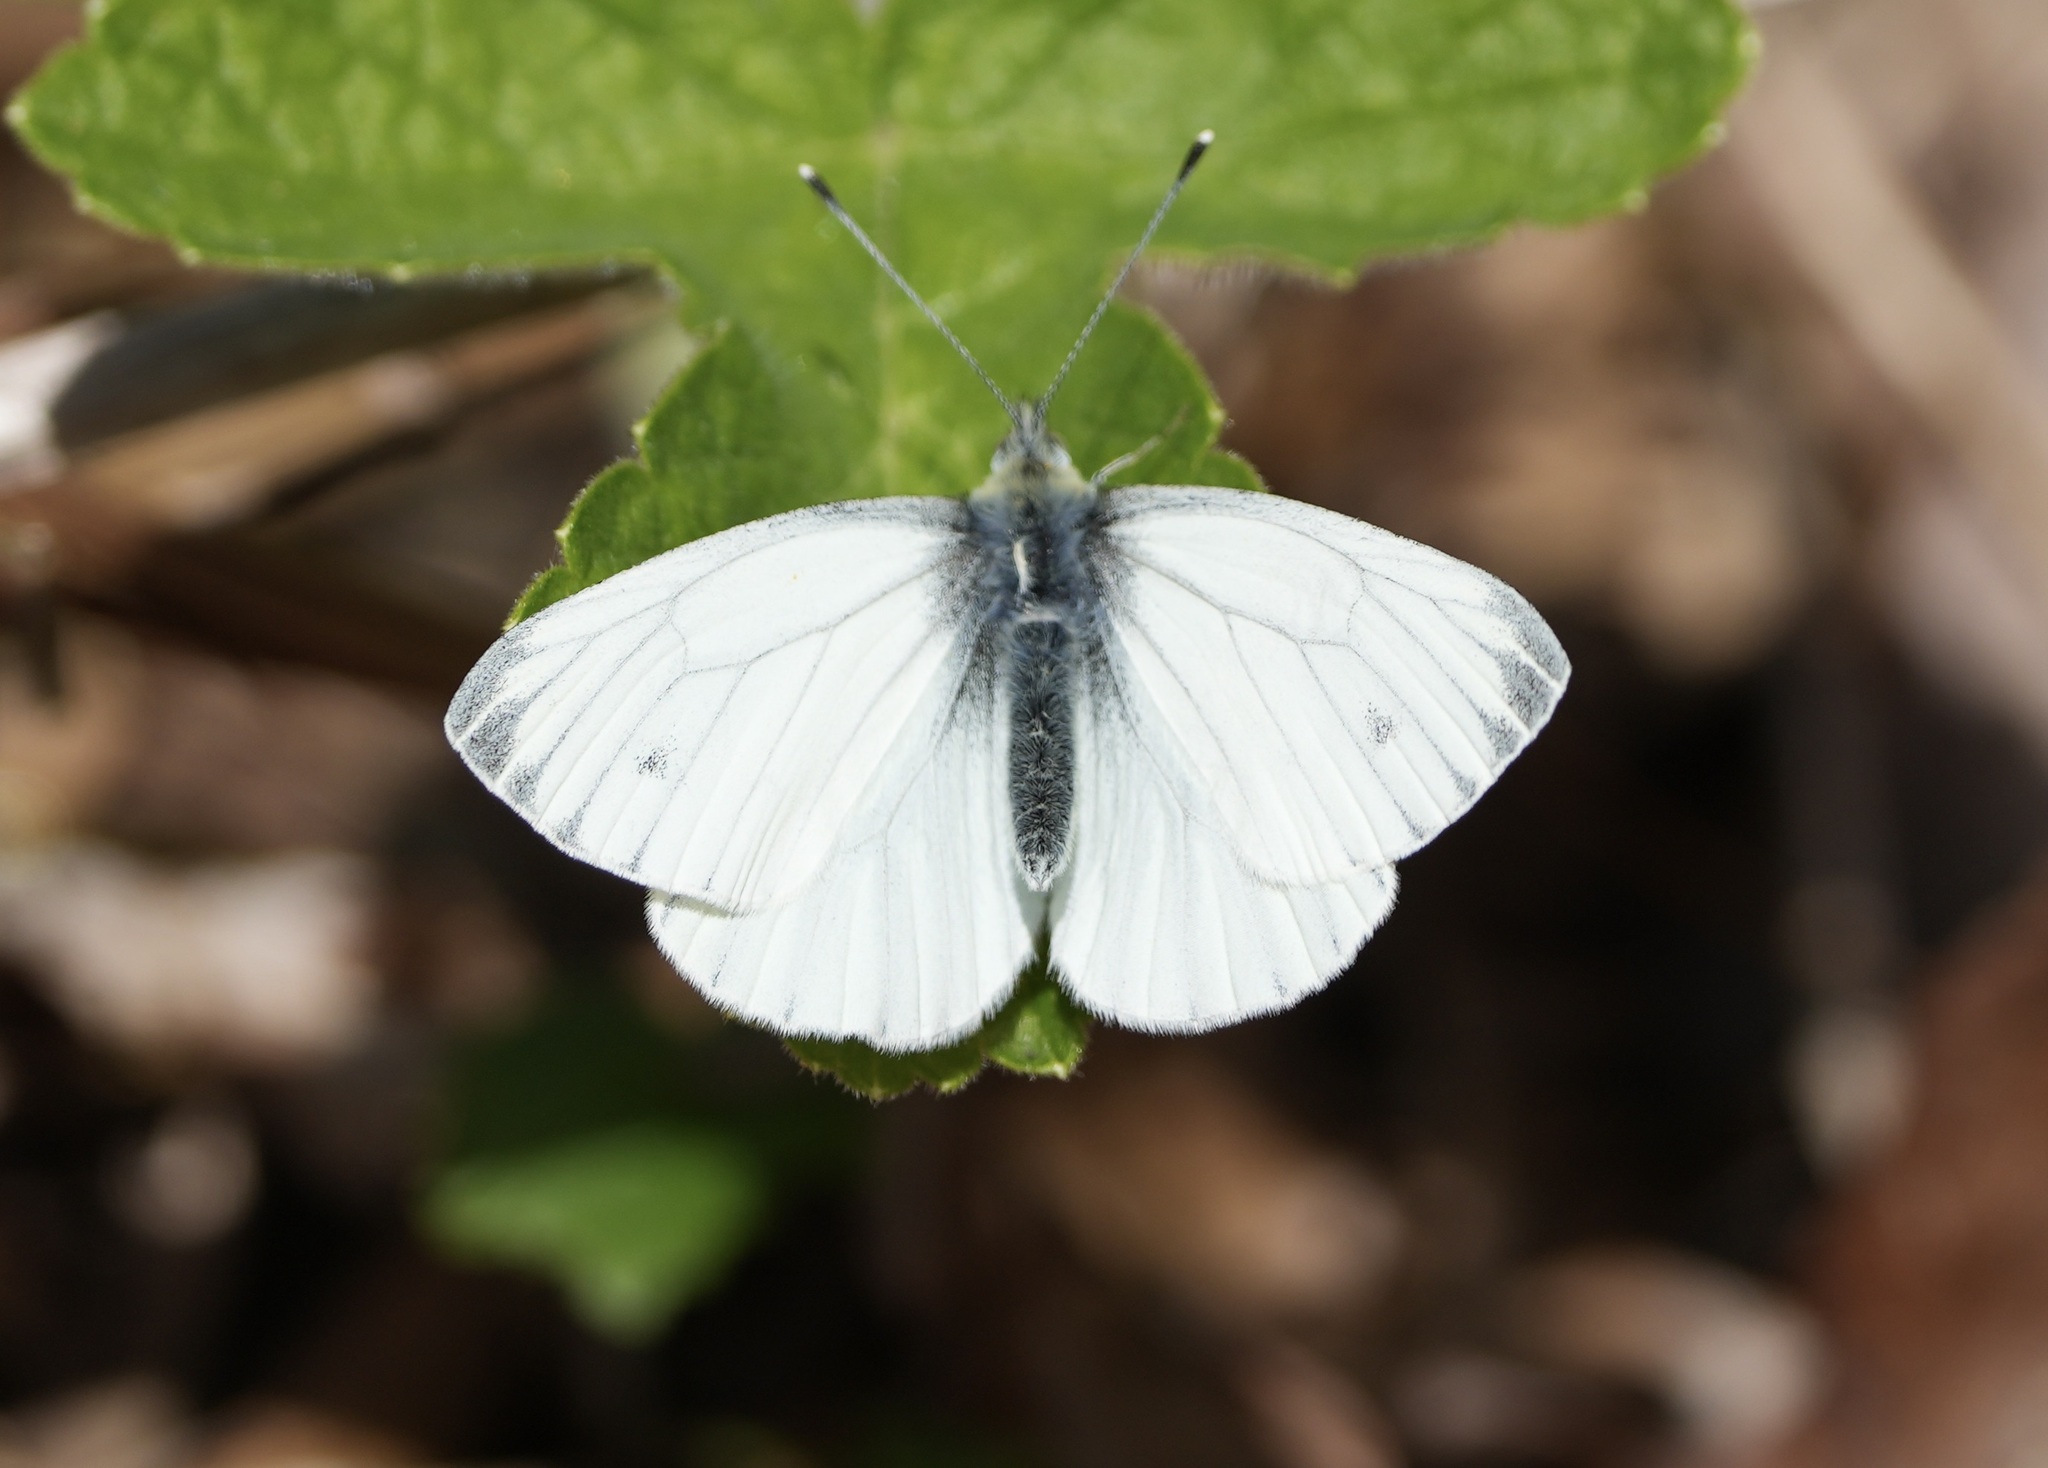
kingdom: Animalia
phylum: Arthropoda
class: Insecta
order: Lepidoptera
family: Pieridae
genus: Pieris
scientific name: Pieris napi
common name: Green-veined white
